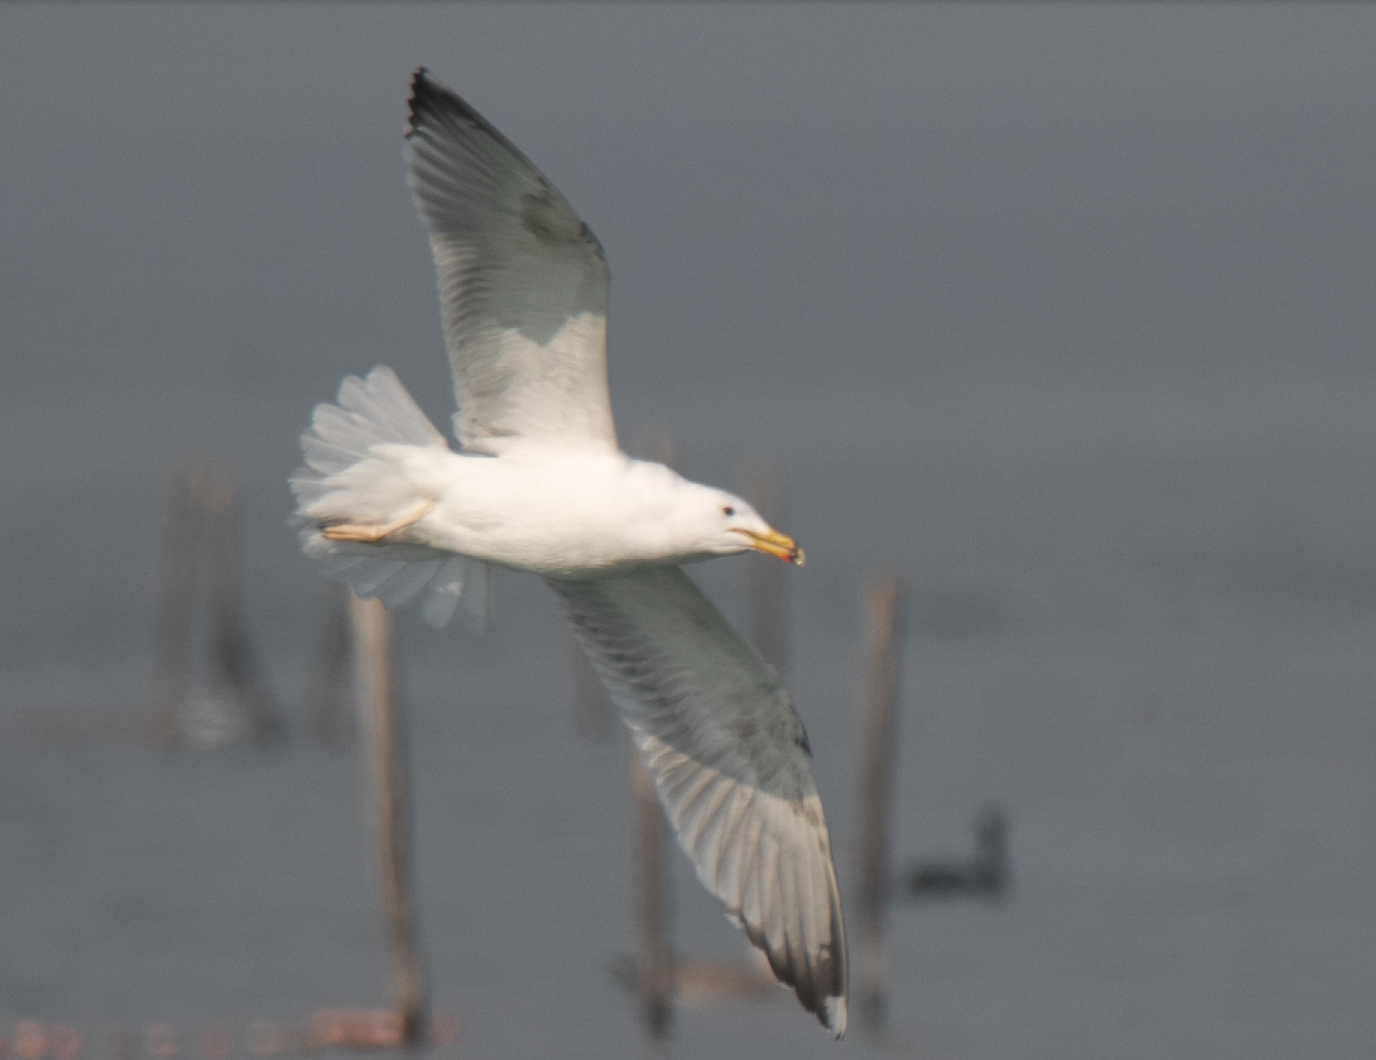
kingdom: Animalia
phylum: Chordata
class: Aves
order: Charadriiformes
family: Laridae
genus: Larus
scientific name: Larus michahellis
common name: Yellow-legged gull
